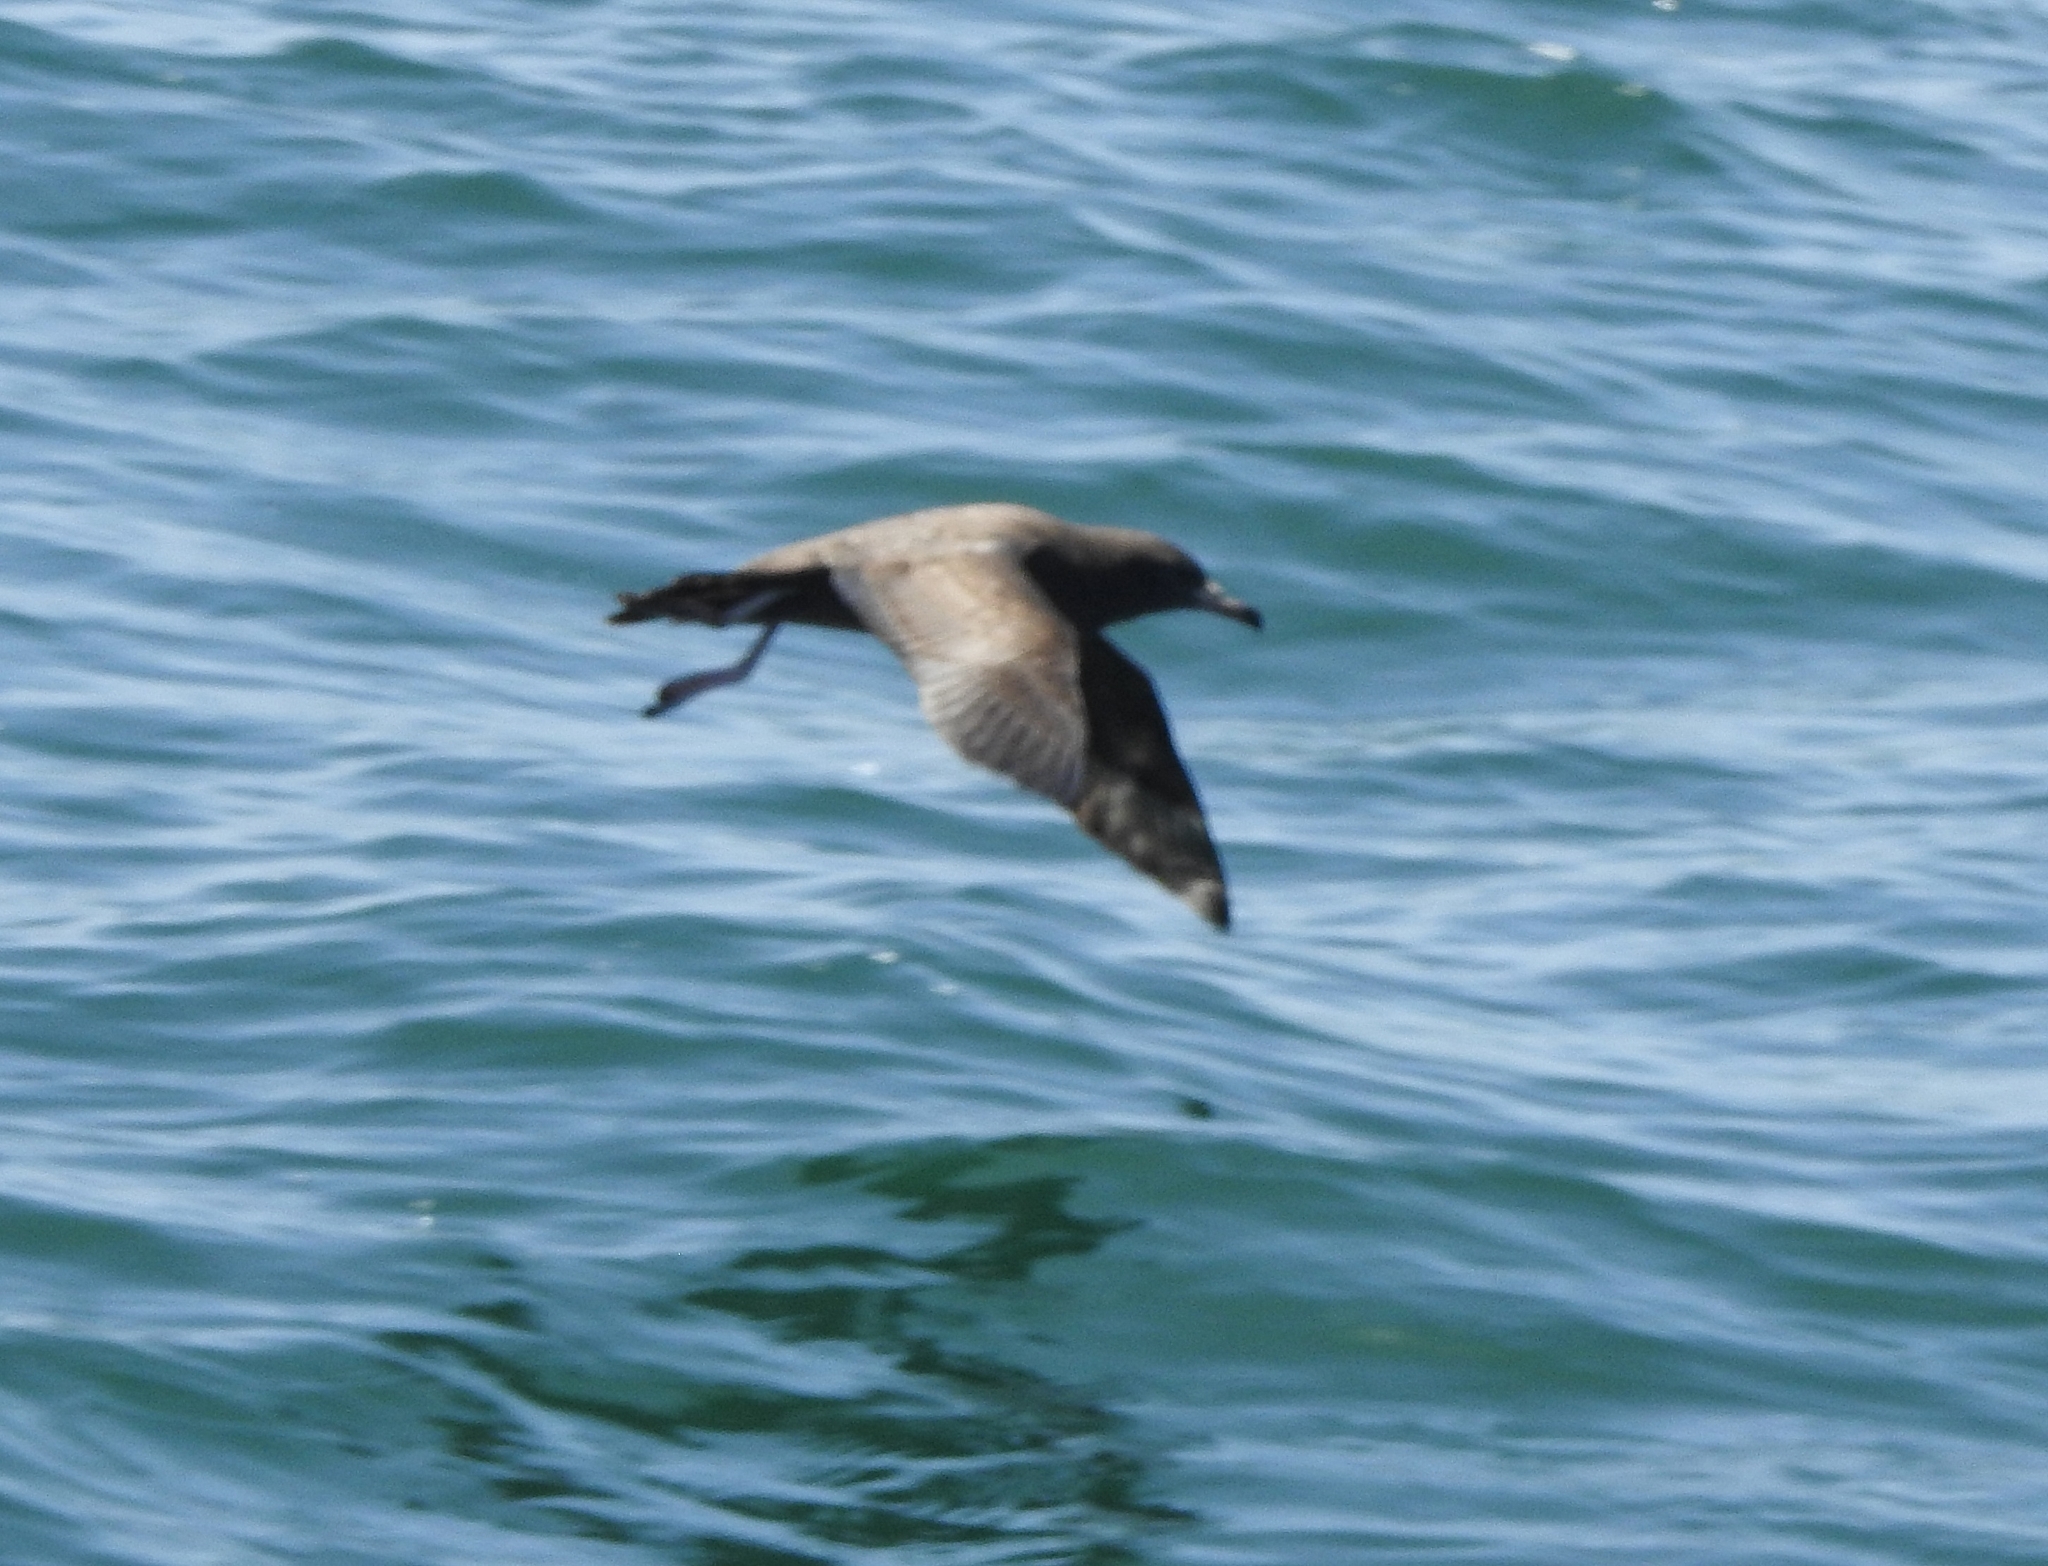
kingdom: Animalia
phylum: Chordata
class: Aves
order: Procellariiformes
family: Procellariidae
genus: Puffinus
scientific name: Puffinus carneipes
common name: Flesh-footed shearwater
